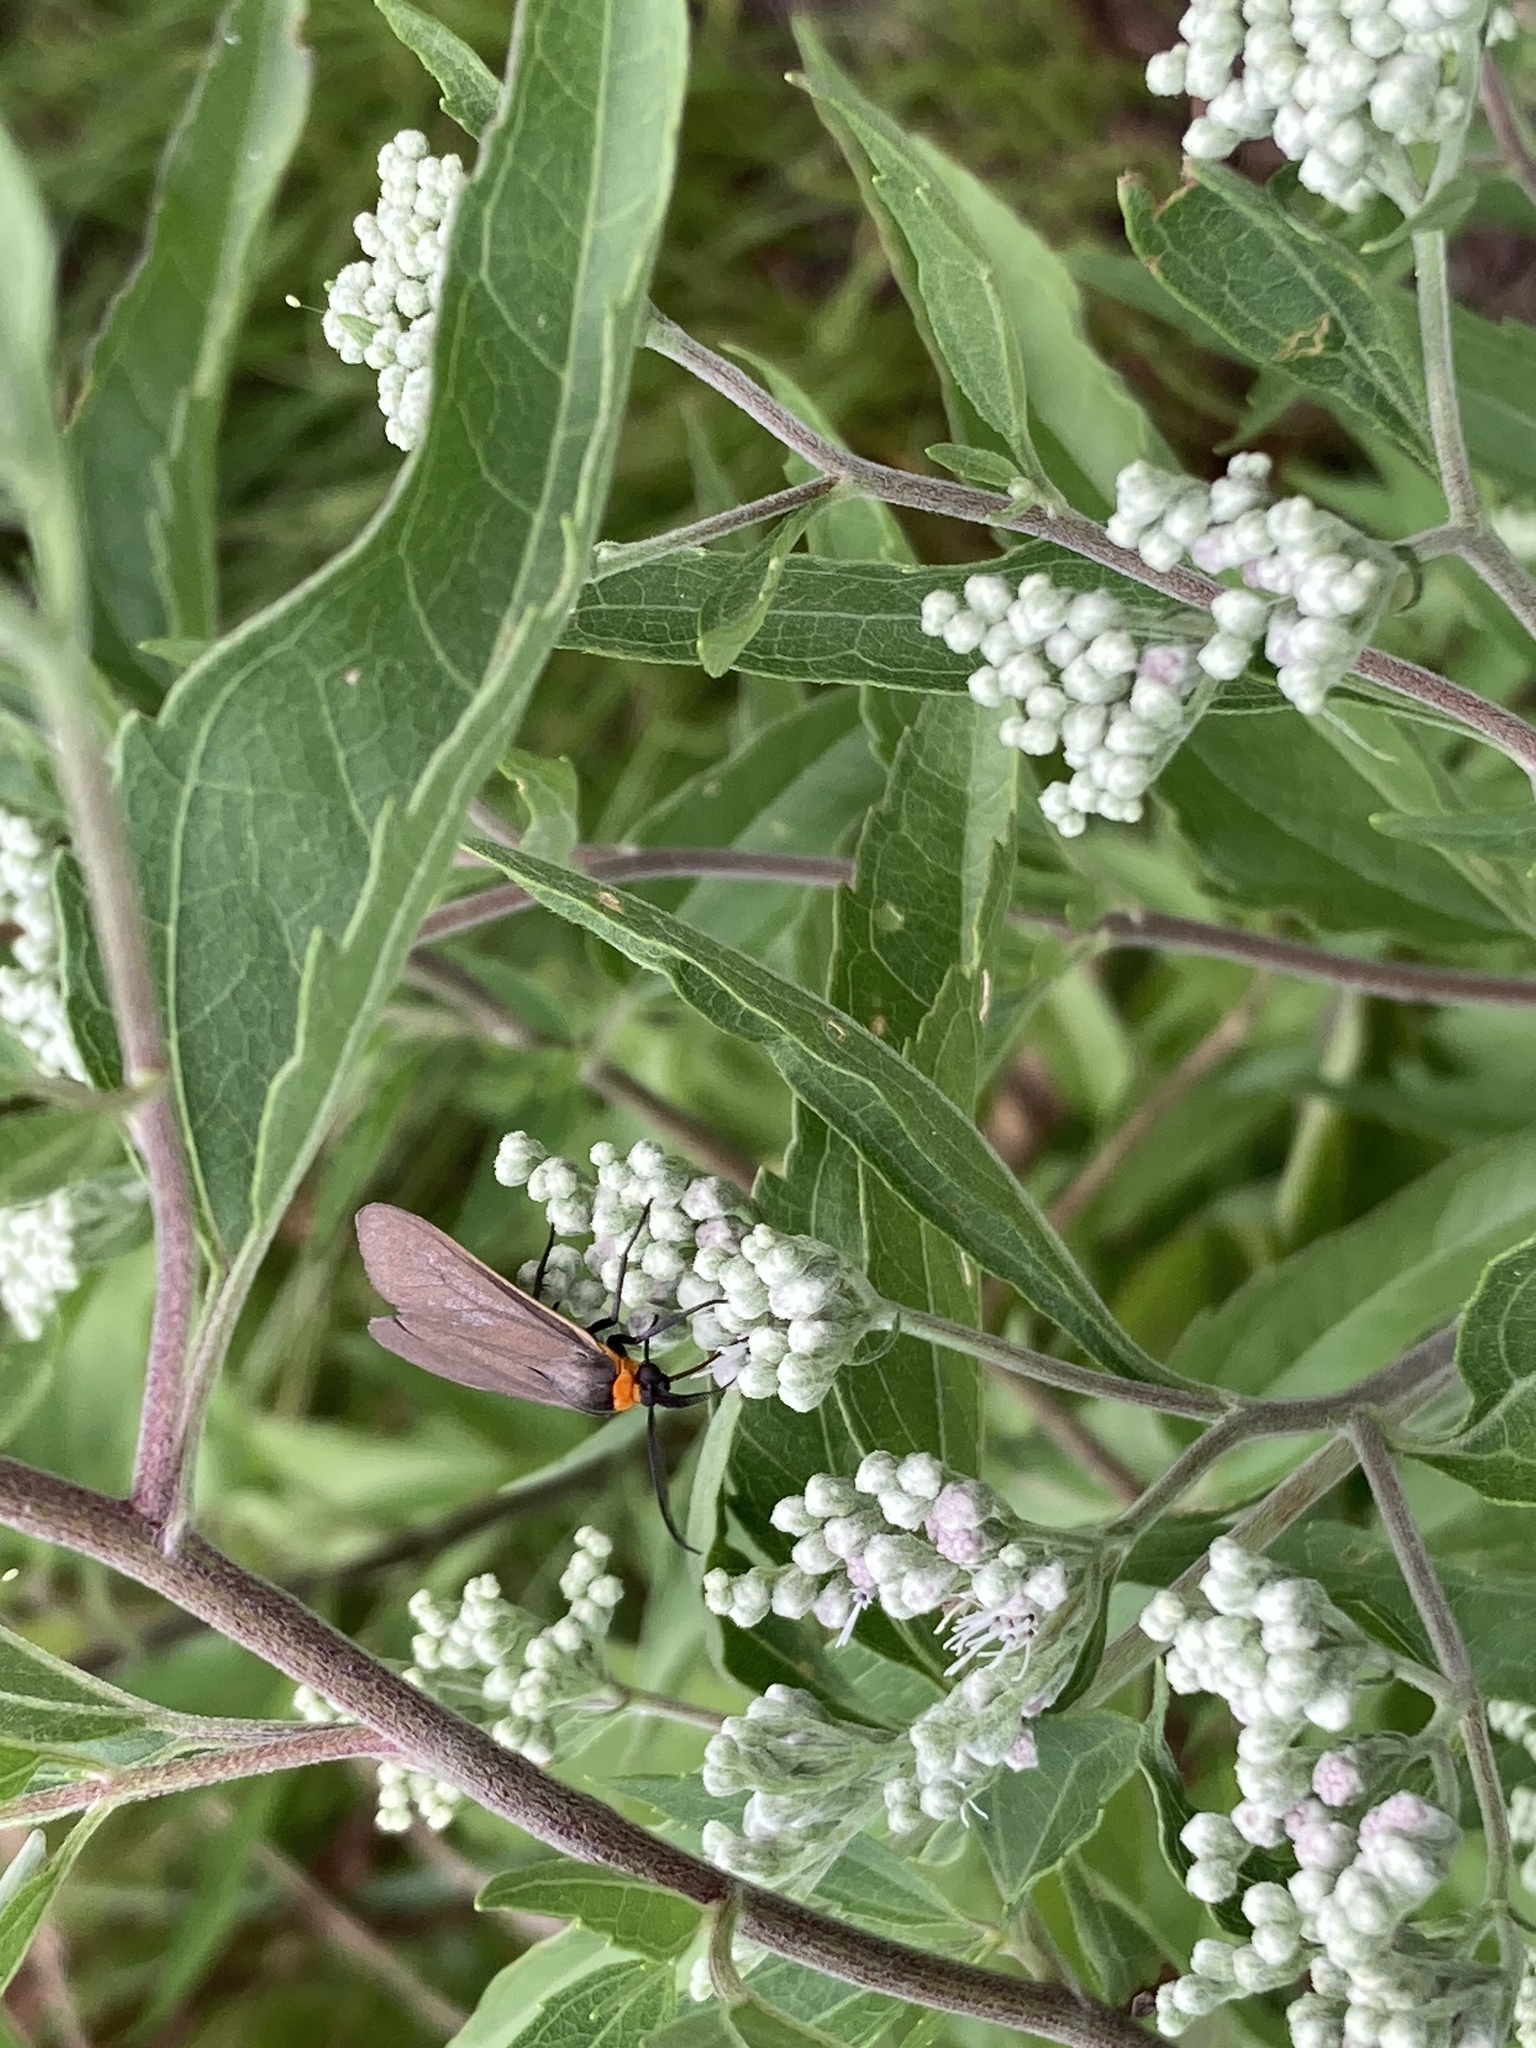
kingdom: Animalia
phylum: Arthropoda
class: Insecta
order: Lepidoptera
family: Erebidae
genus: Cisseps
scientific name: Cisseps fulvicollis
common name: Yellow-collared scape moth
